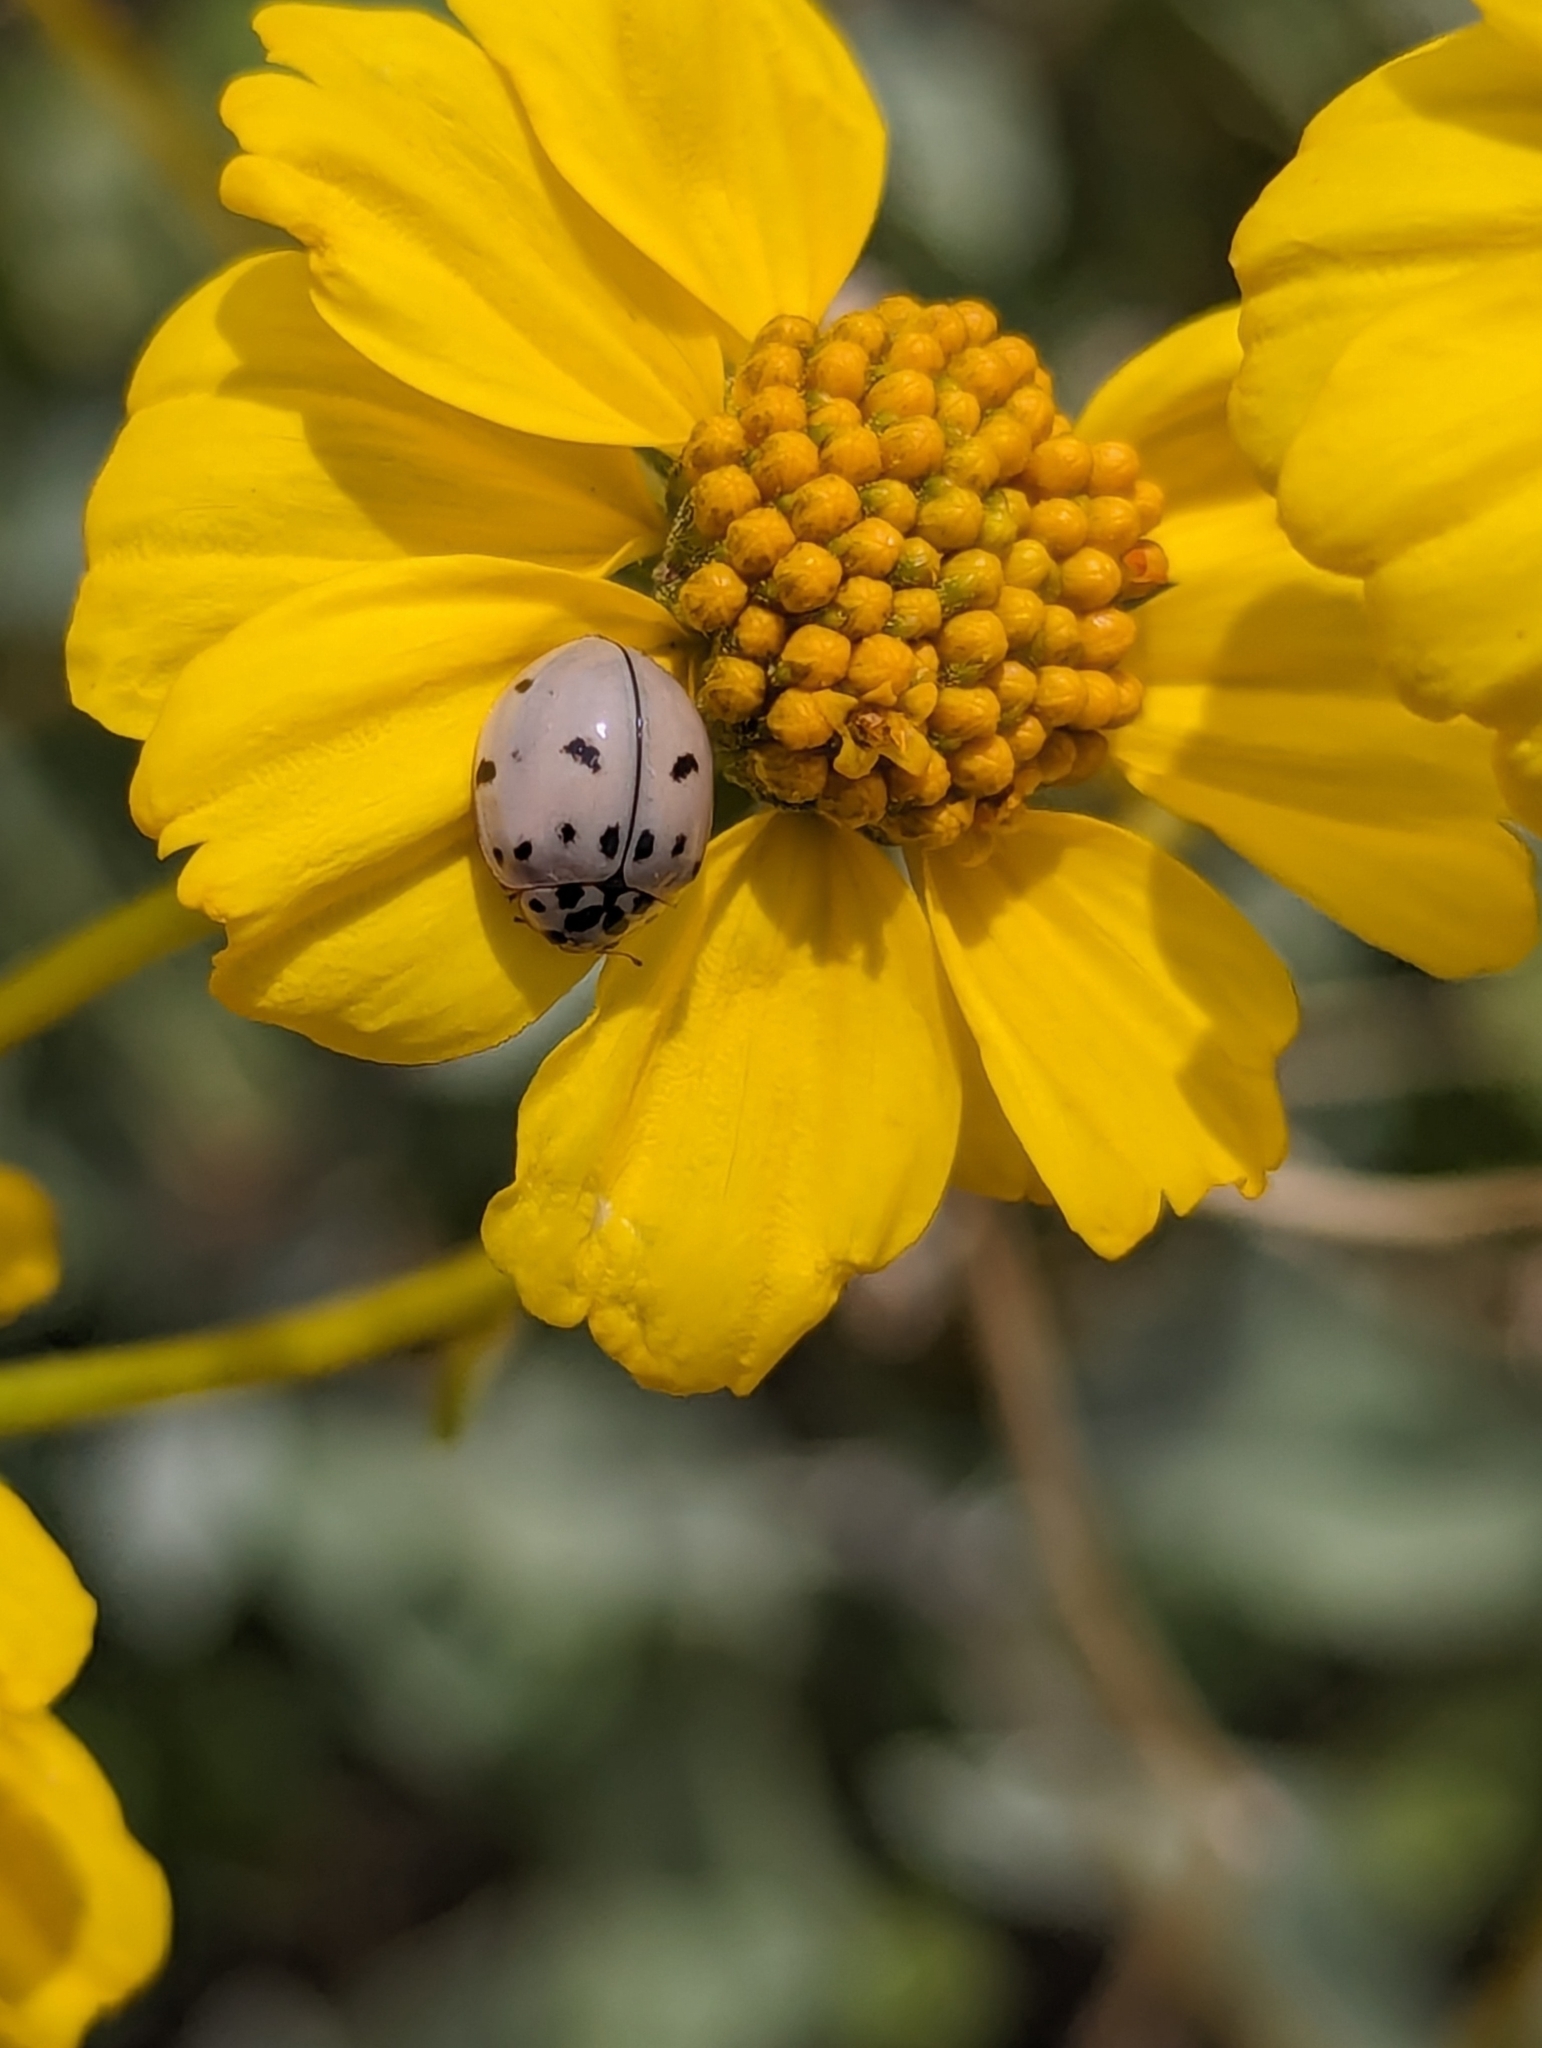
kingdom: Animalia
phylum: Arthropoda
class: Insecta
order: Coleoptera
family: Coccinellidae
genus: Olla
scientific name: Olla v-nigrum
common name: Ashy gray lady beetle
